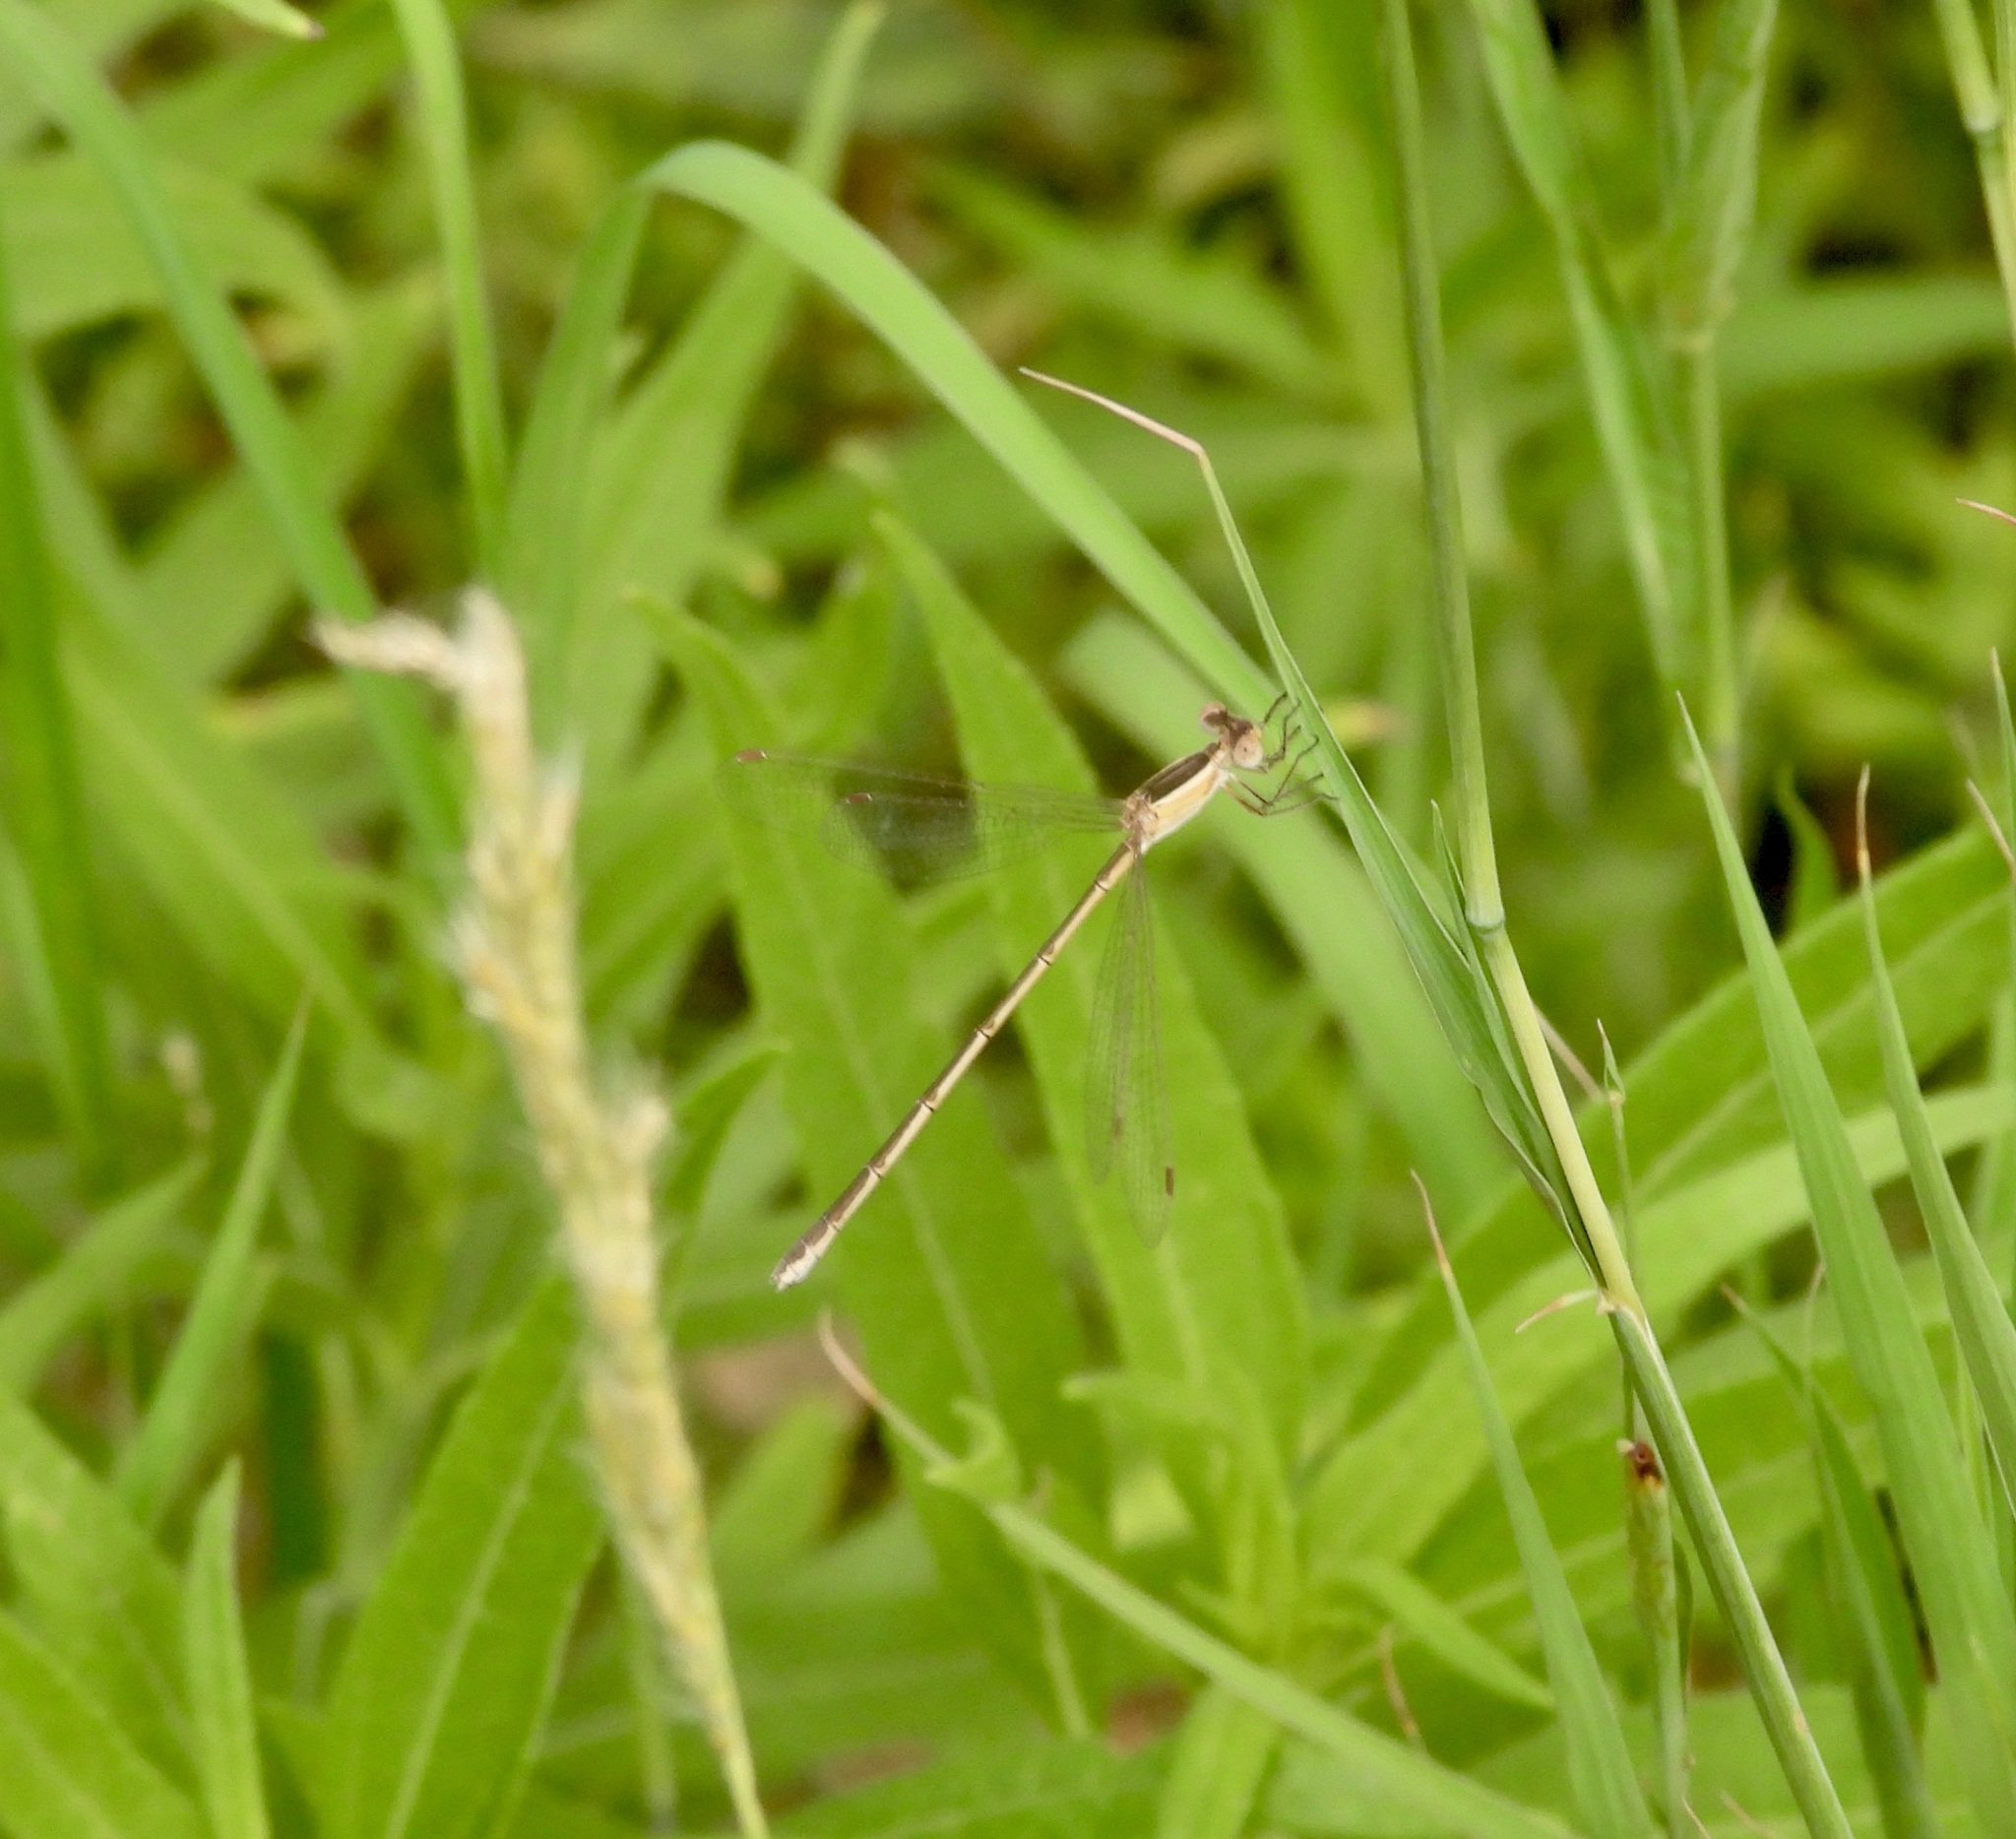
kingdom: Animalia
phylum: Arthropoda
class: Insecta
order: Odonata
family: Lestidae
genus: Lestes
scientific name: Lestes alacer
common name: Plateau spreadwing
